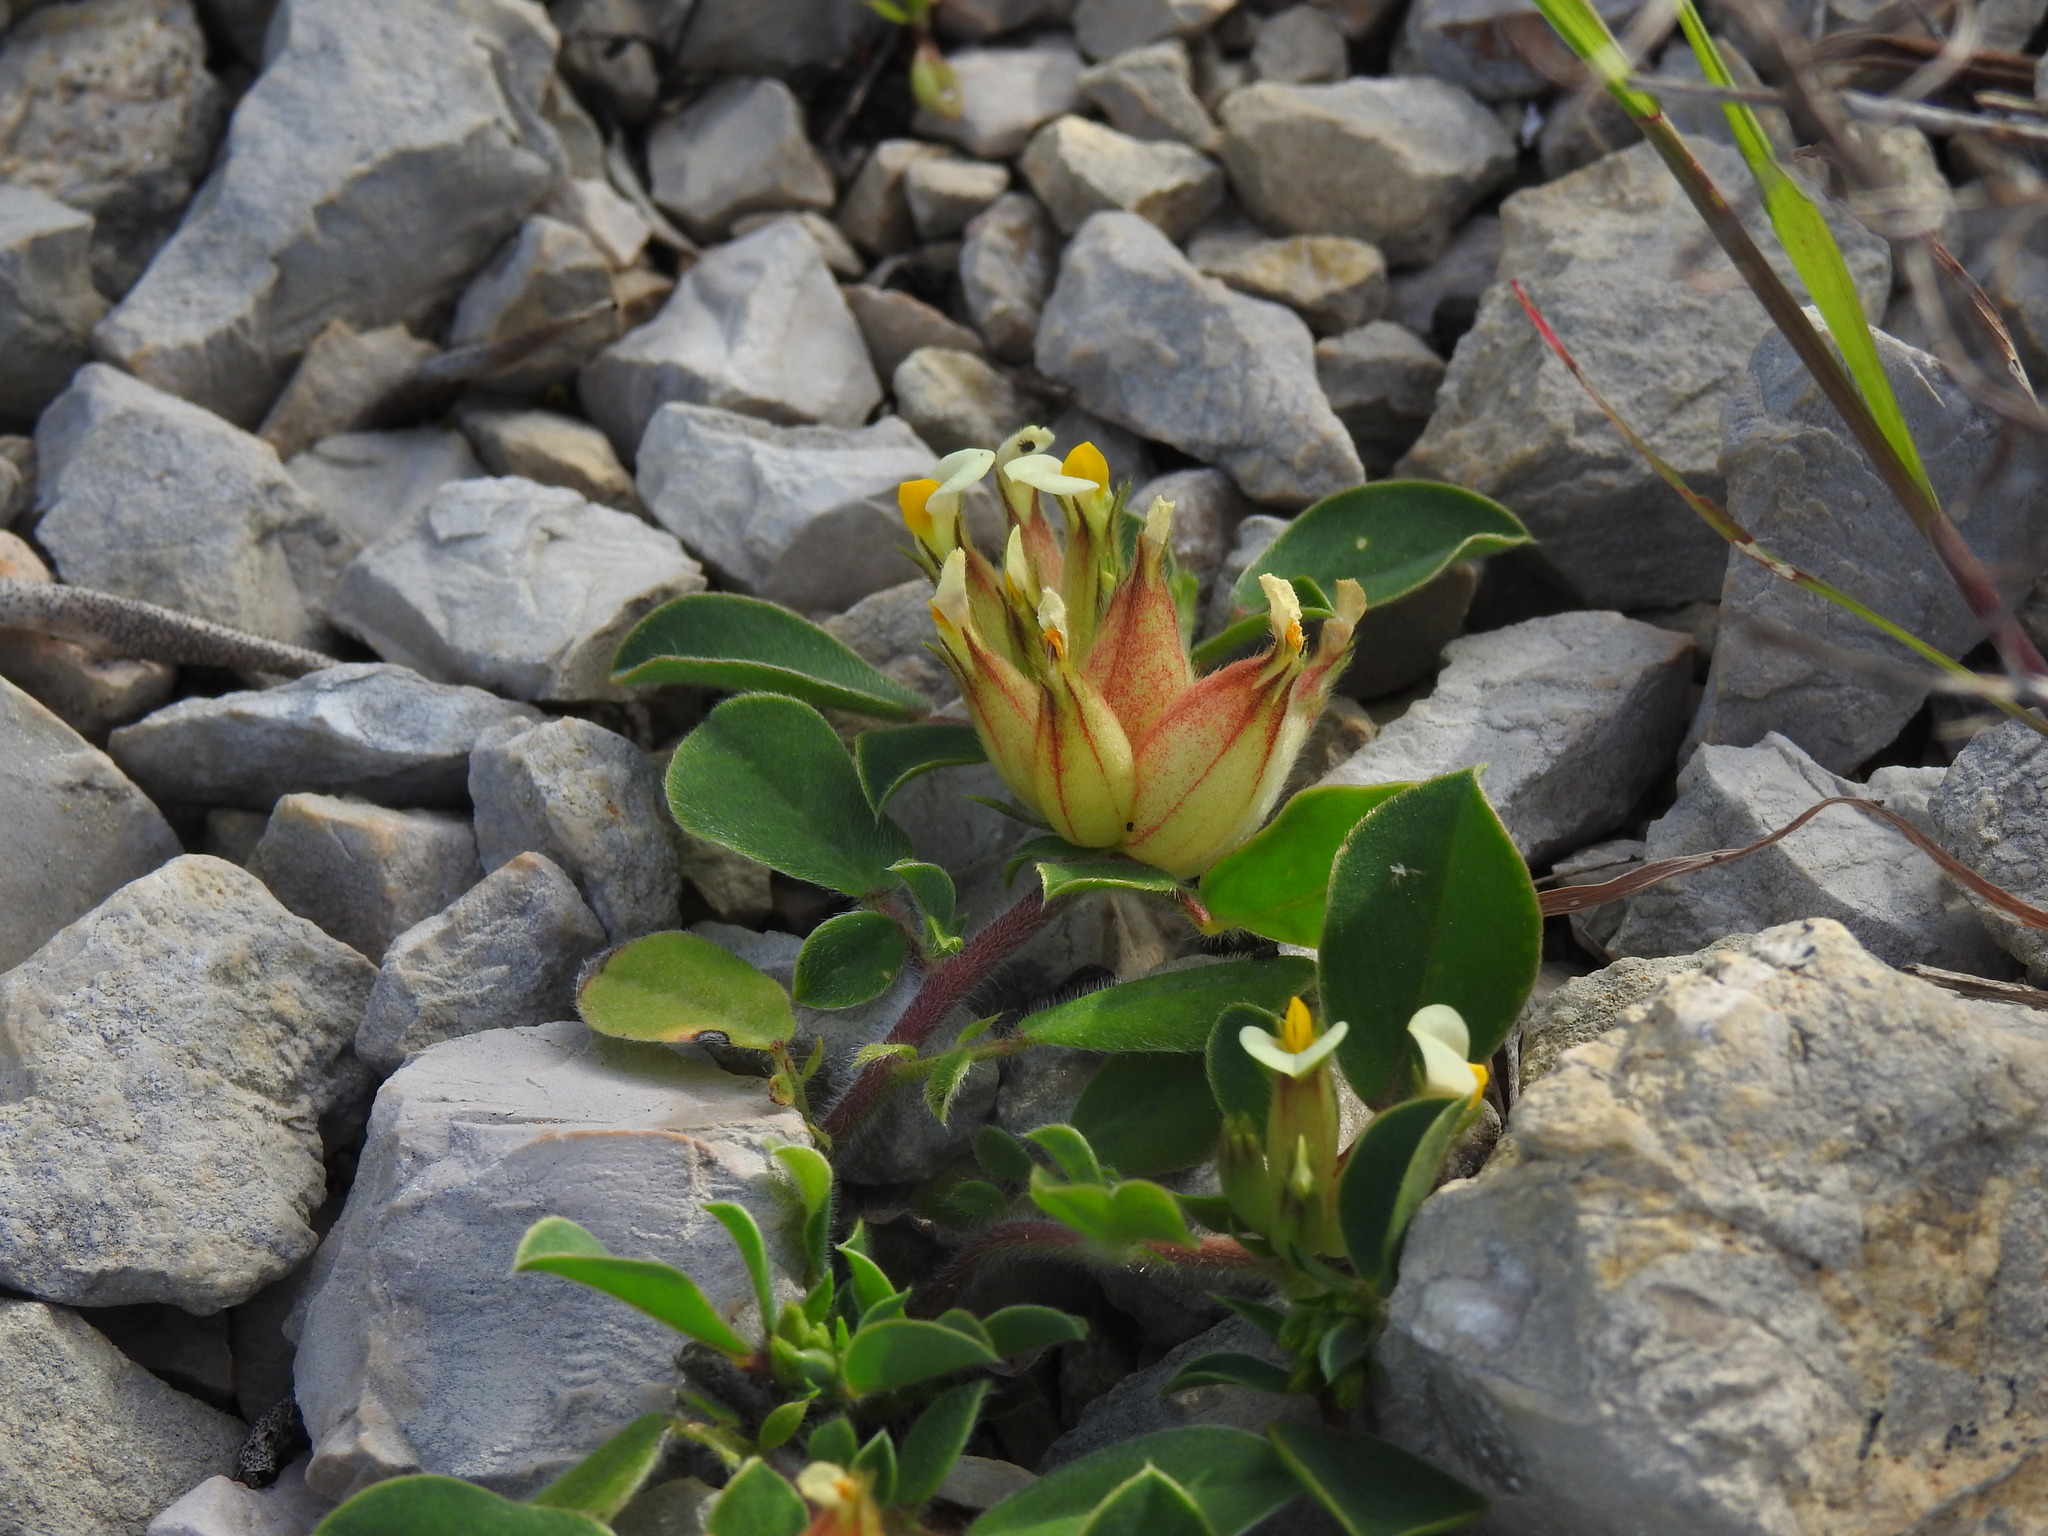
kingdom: Plantae
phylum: Tracheophyta
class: Magnoliopsida
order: Fabales
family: Fabaceae
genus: Tripodion
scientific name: Tripodion tetraphyllum
